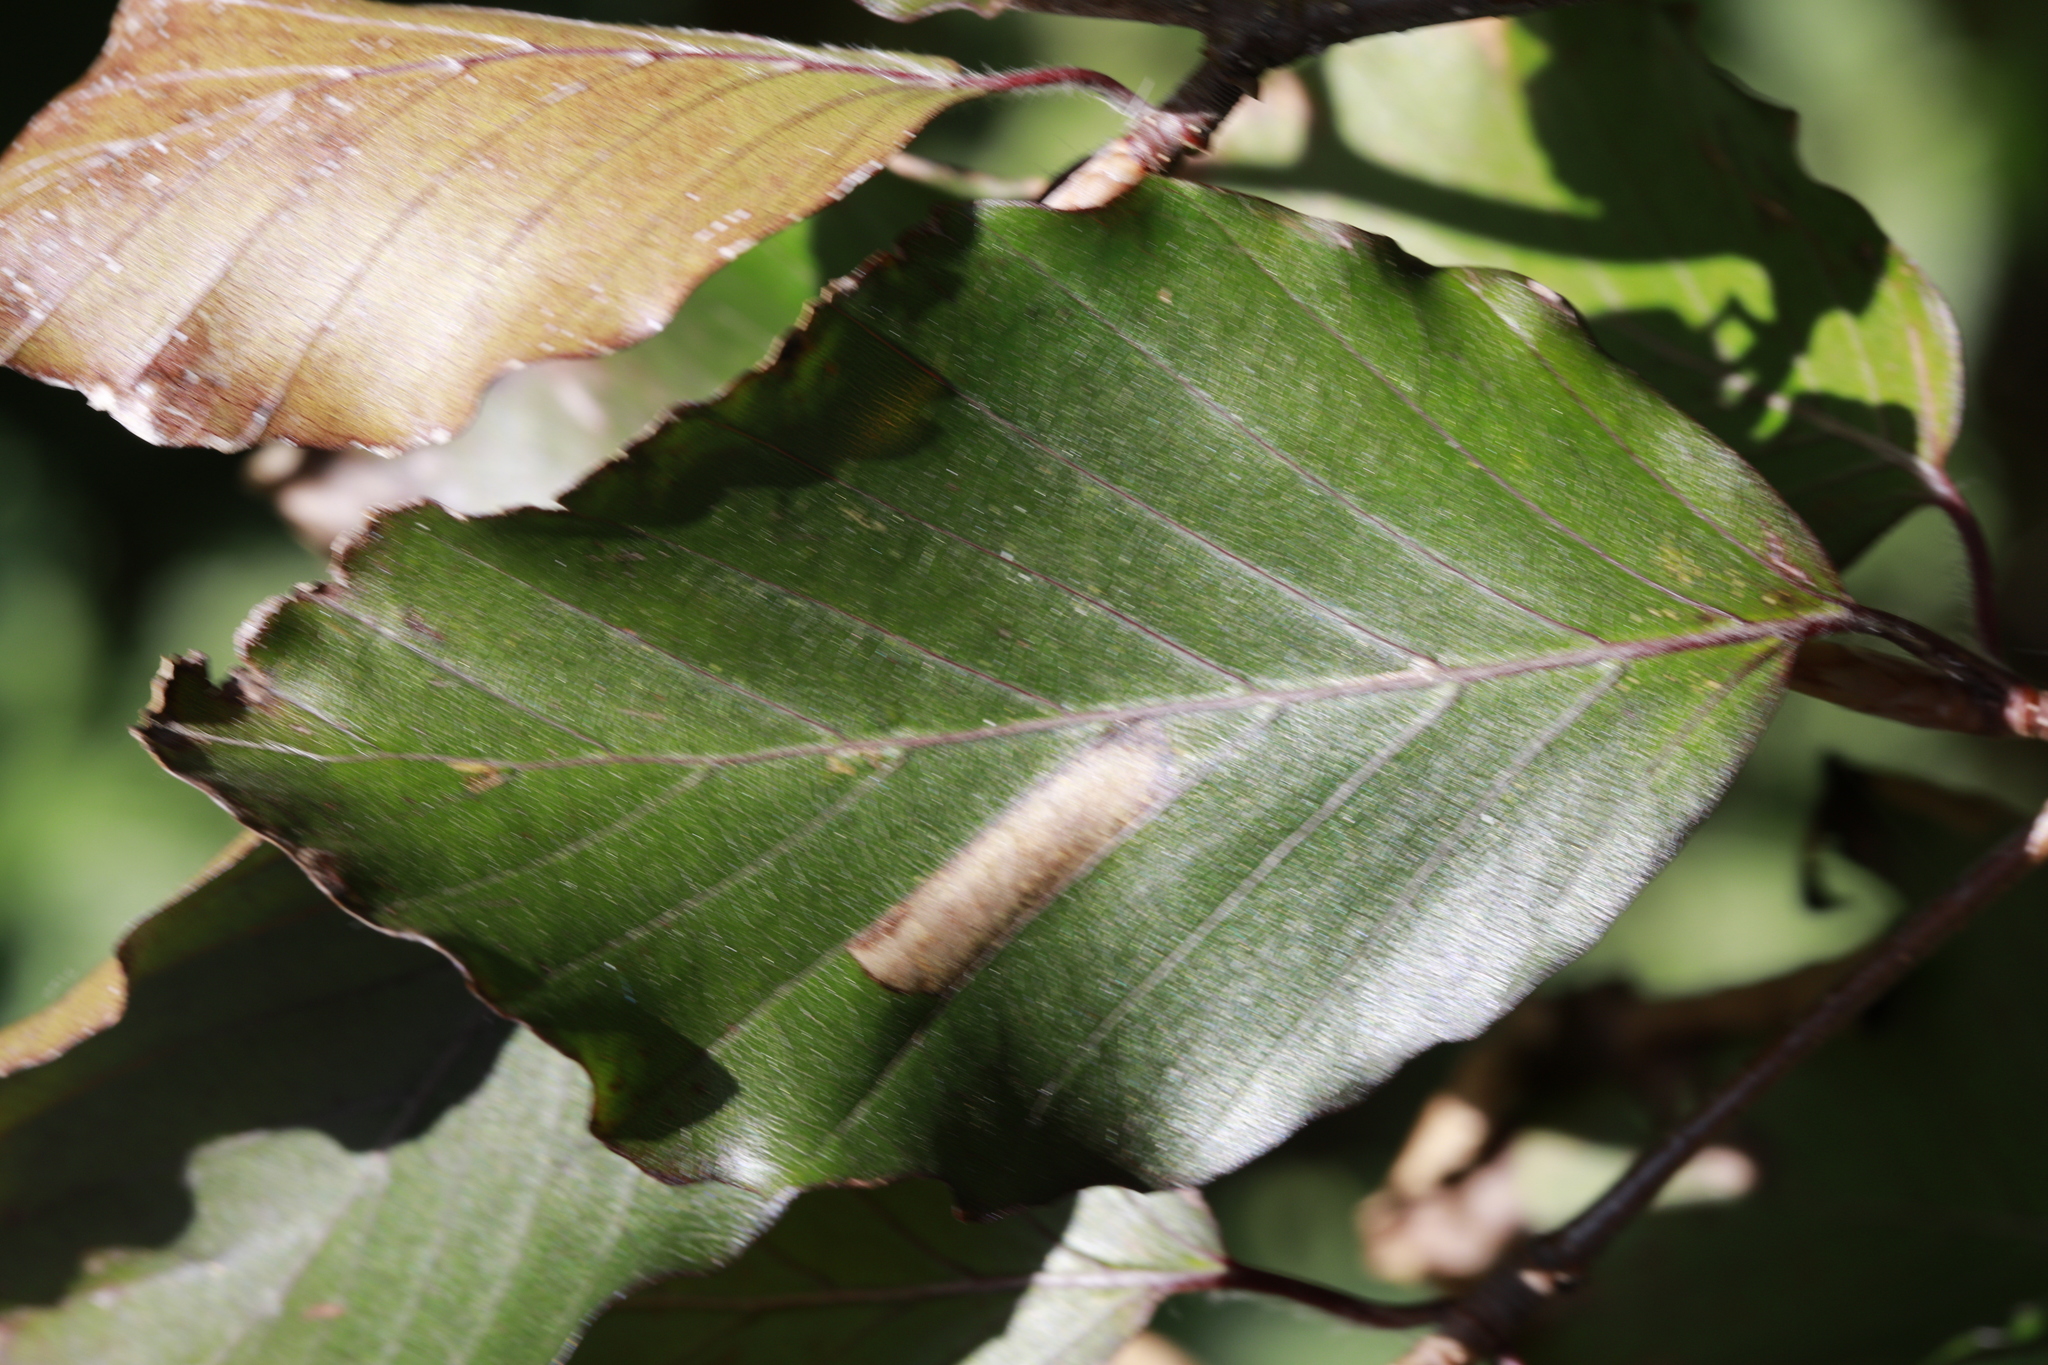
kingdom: Animalia
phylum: Arthropoda
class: Insecta
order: Lepidoptera
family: Gracillariidae
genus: Phyllonorycter
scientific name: Phyllonorycter maestingella
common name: Beech midget
